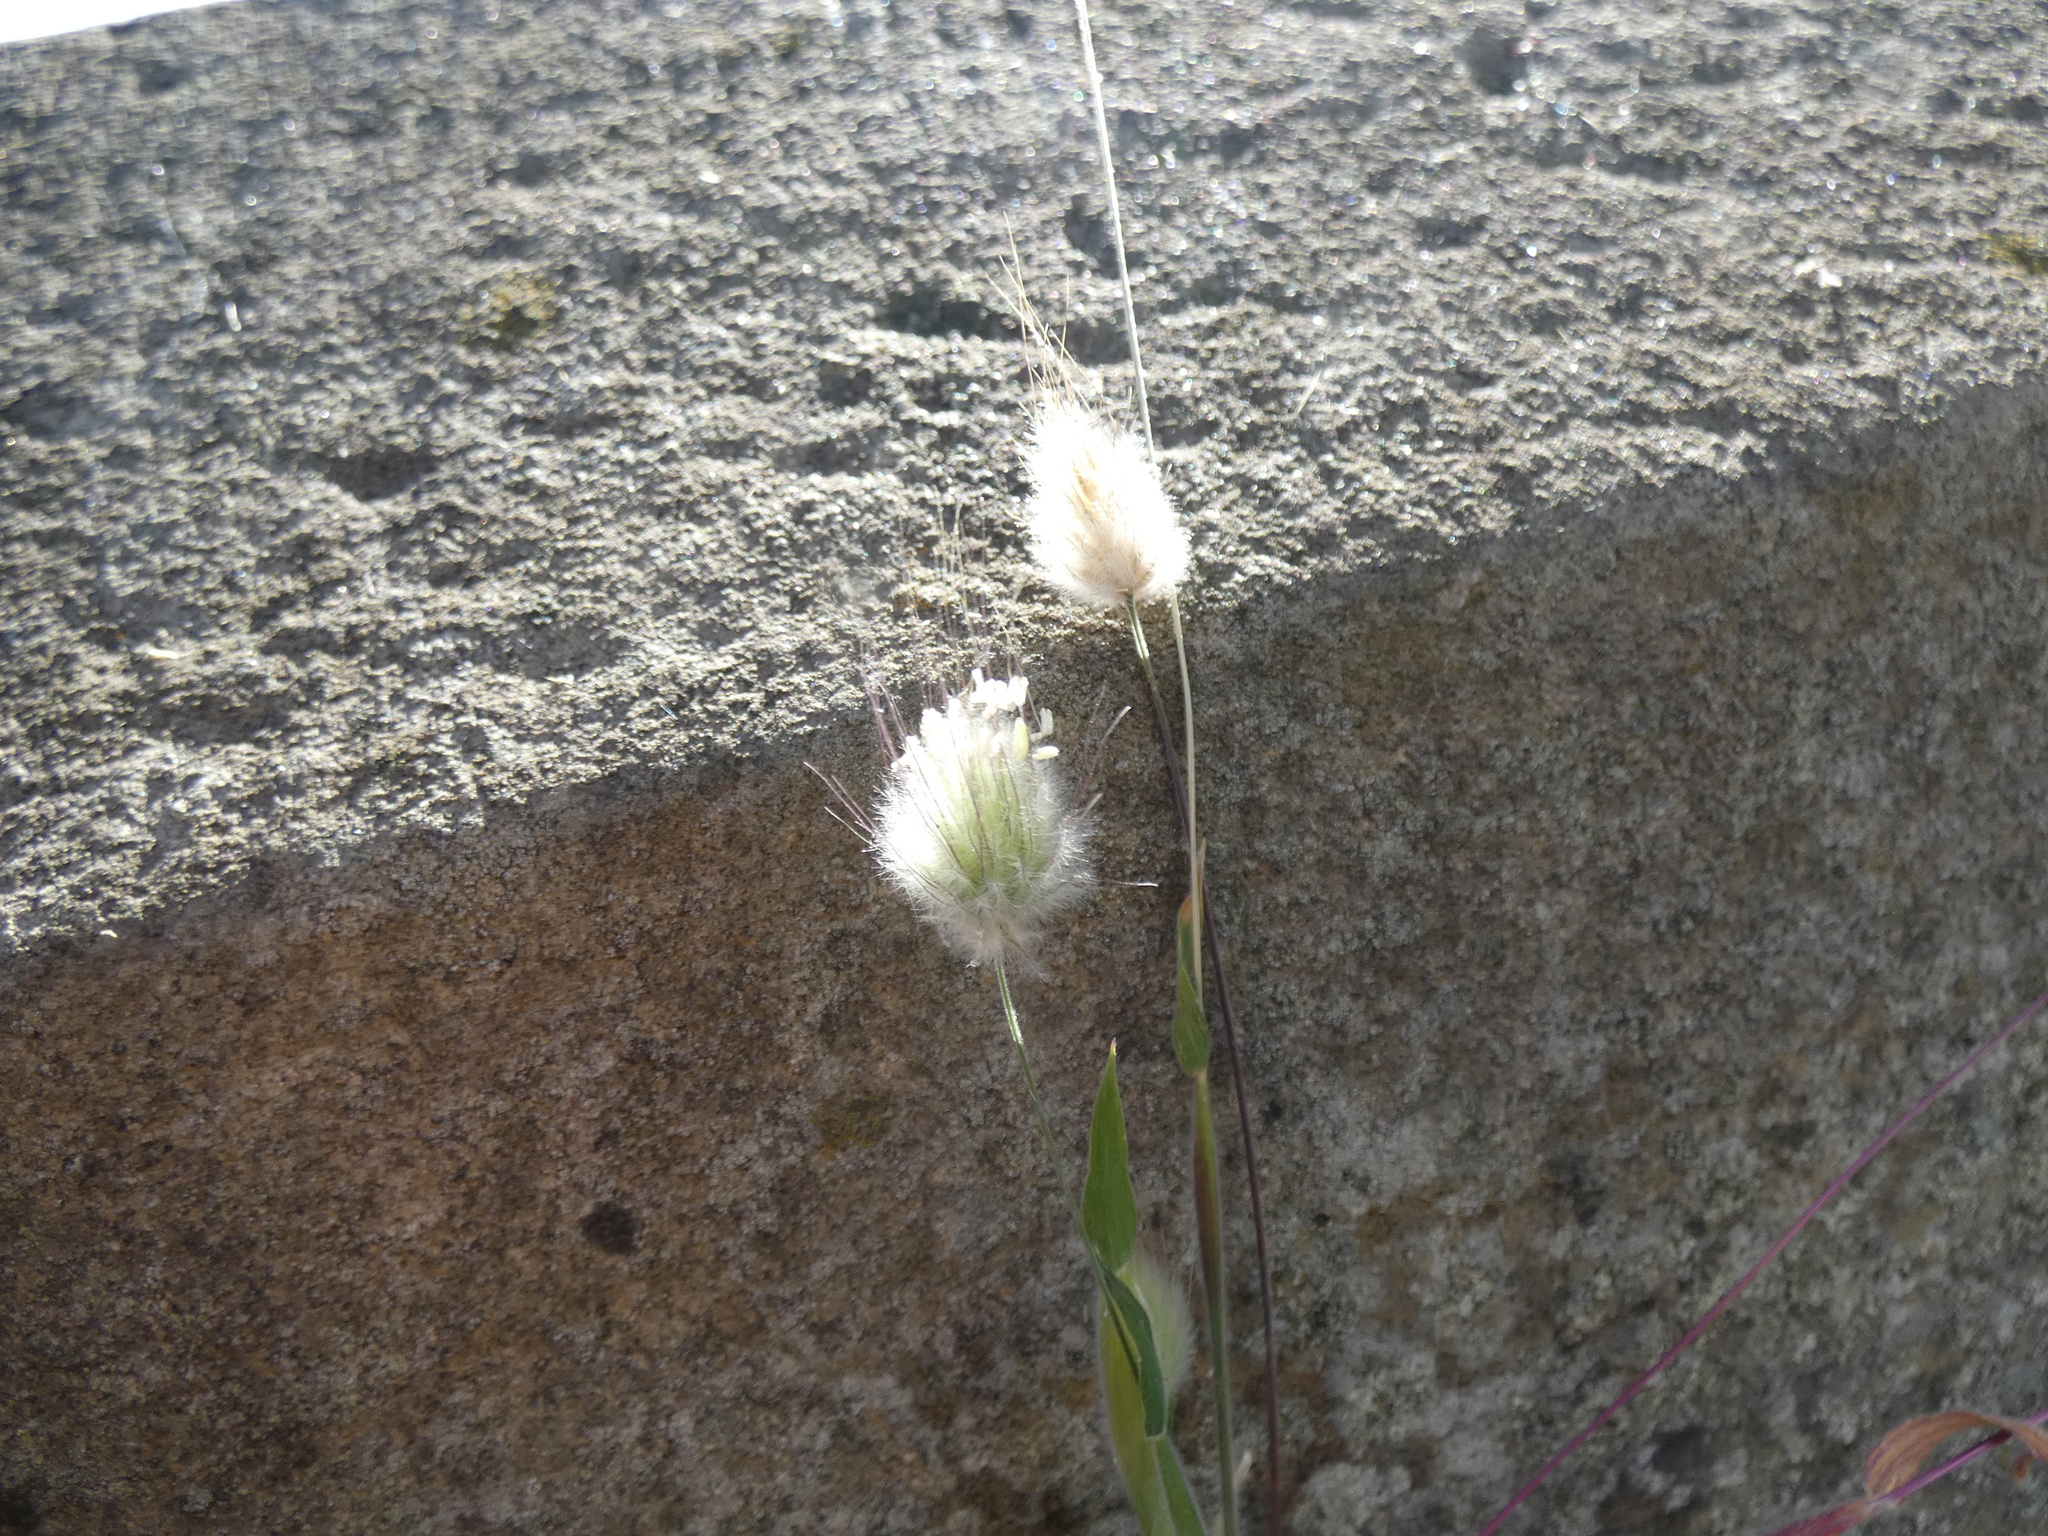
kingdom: Plantae
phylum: Tracheophyta
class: Liliopsida
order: Poales
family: Poaceae
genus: Lagurus
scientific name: Lagurus ovatus
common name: Hare's-tail
